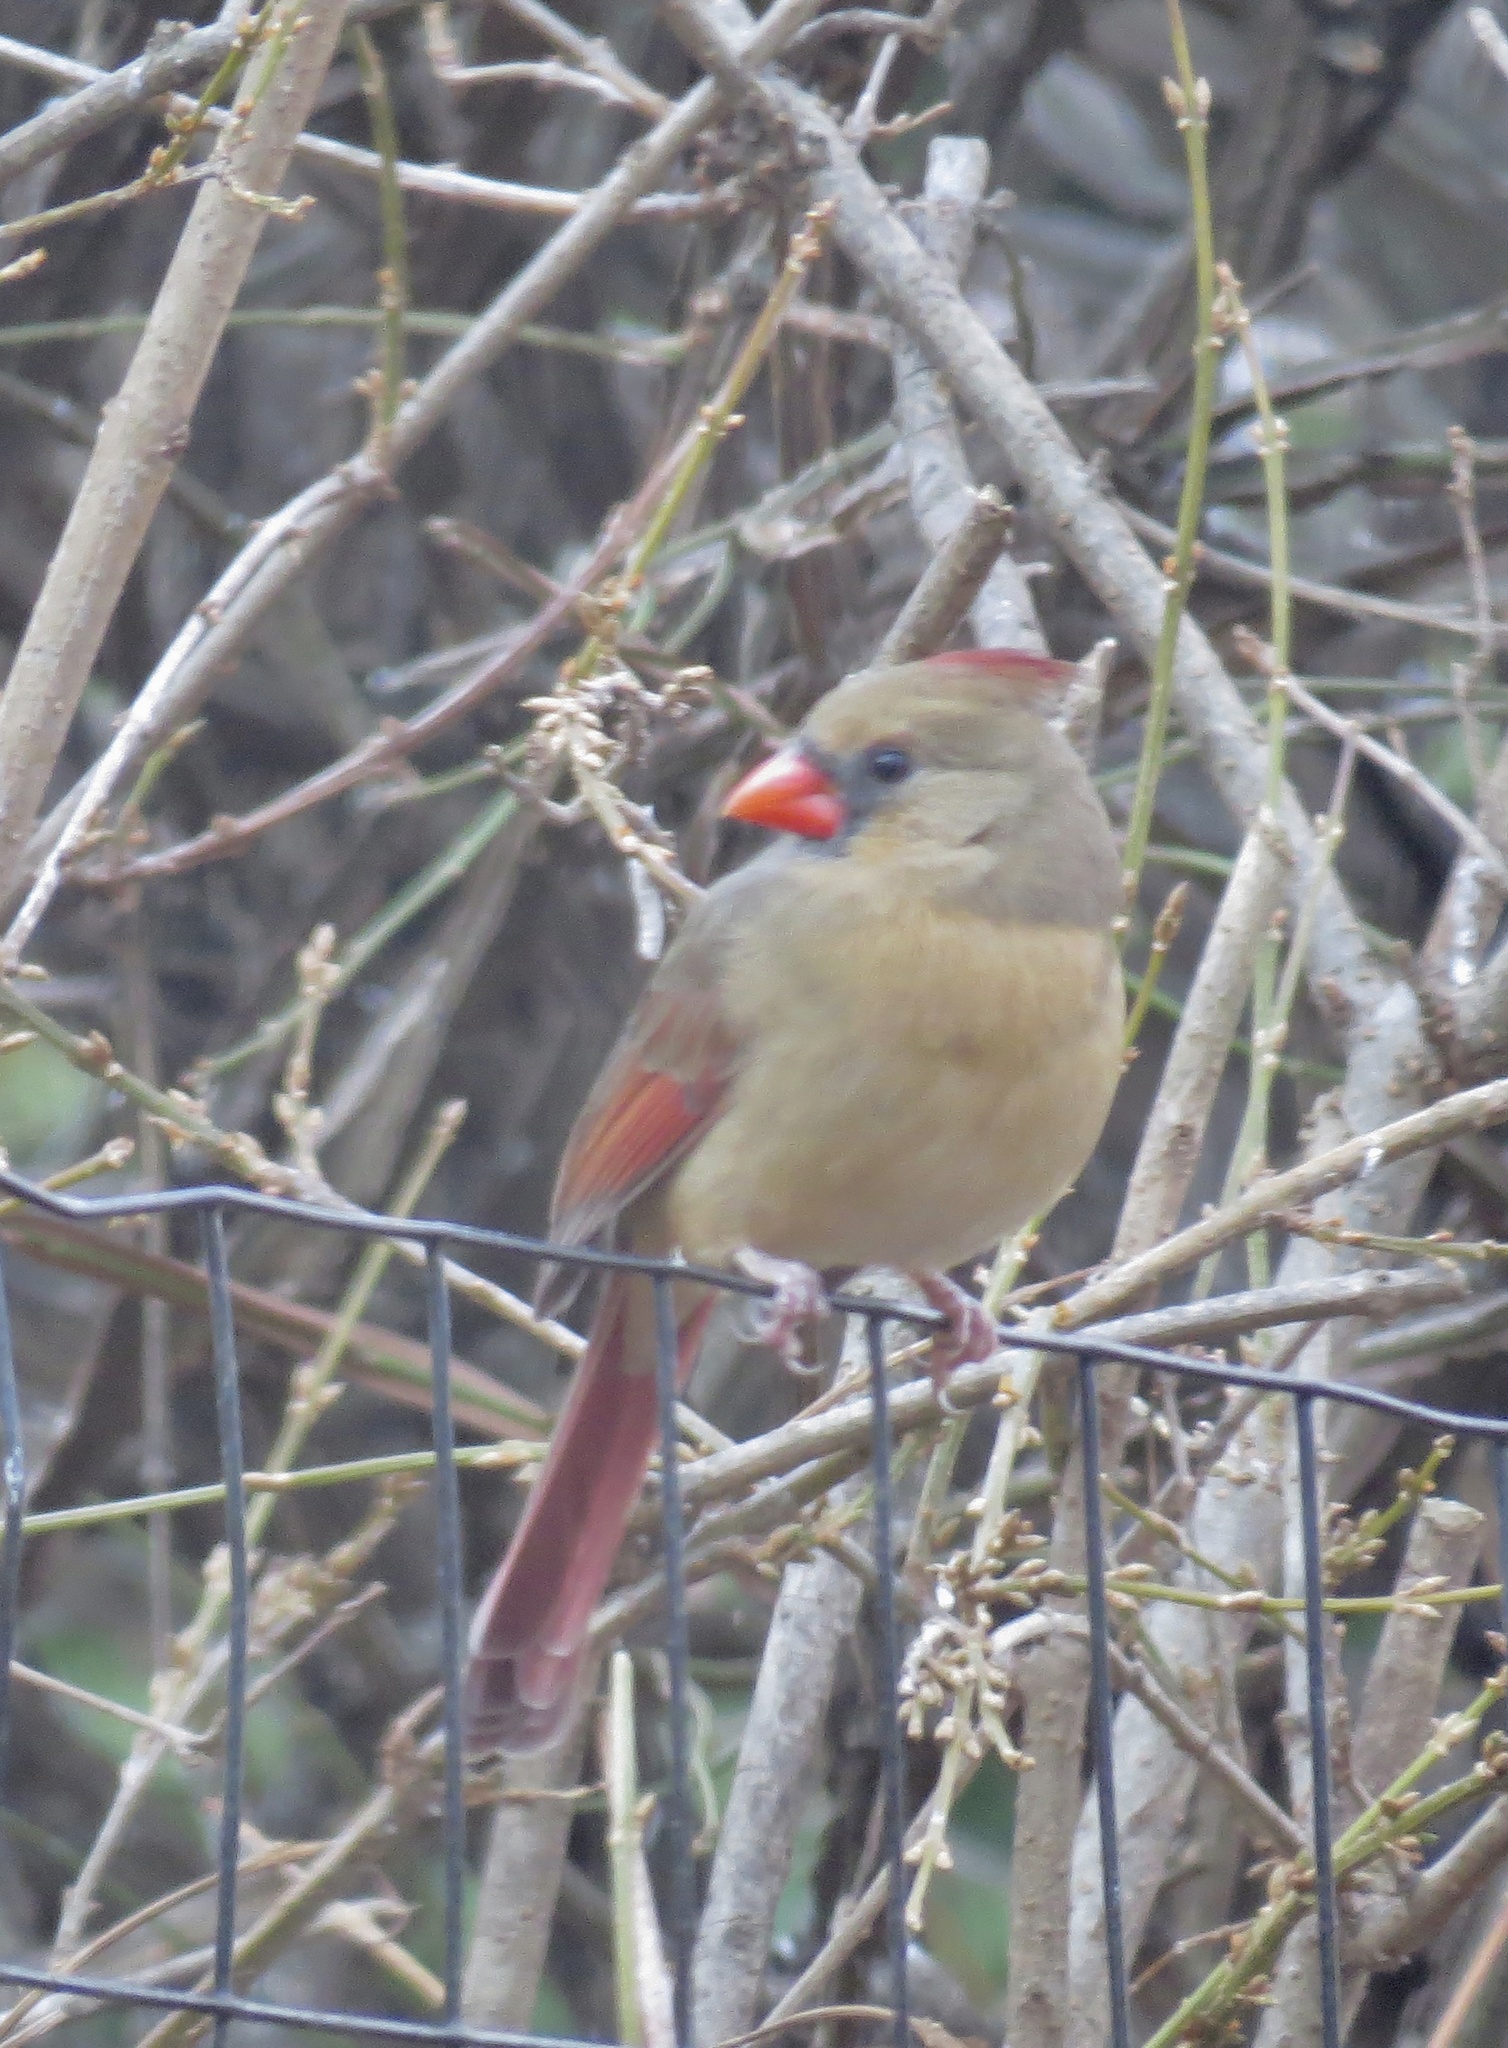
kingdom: Animalia
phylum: Chordata
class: Aves
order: Passeriformes
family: Cardinalidae
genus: Cardinalis
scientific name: Cardinalis cardinalis
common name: Northern cardinal
